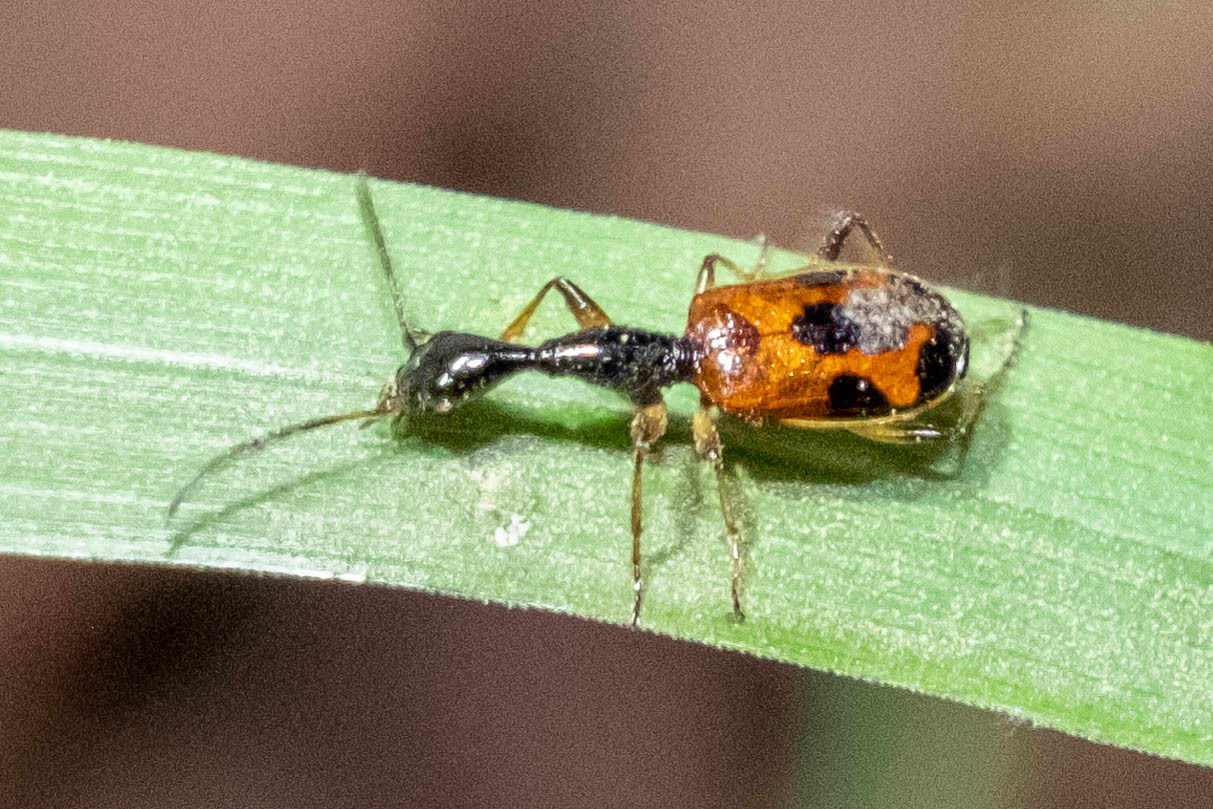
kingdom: Animalia
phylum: Arthropoda
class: Insecta
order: Coleoptera
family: Carabidae
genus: Colliuris
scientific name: Colliuris pensylvanica
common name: Long-necked ground beetle
